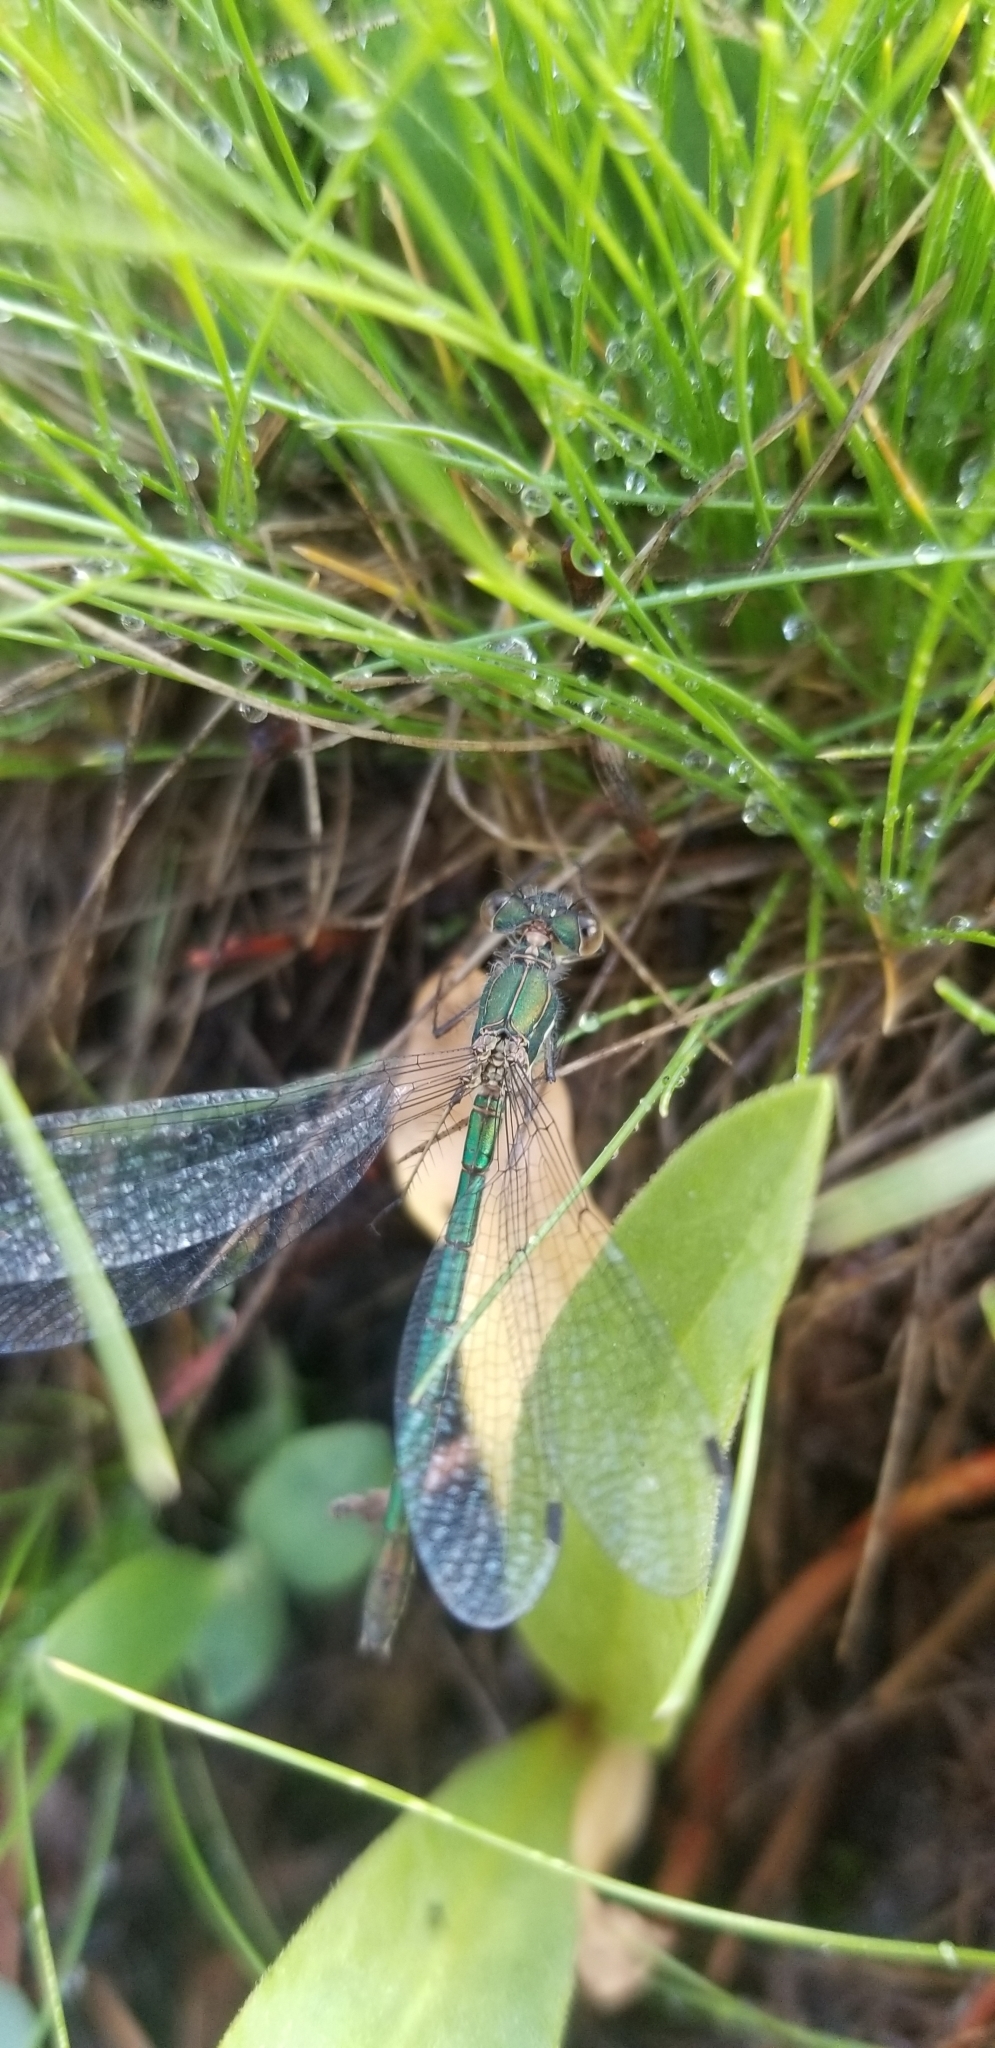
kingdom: Animalia
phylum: Arthropoda
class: Insecta
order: Odonata
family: Lestidae
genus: Lestes
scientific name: Lestes dryas
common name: Scarce emerald damselfly
